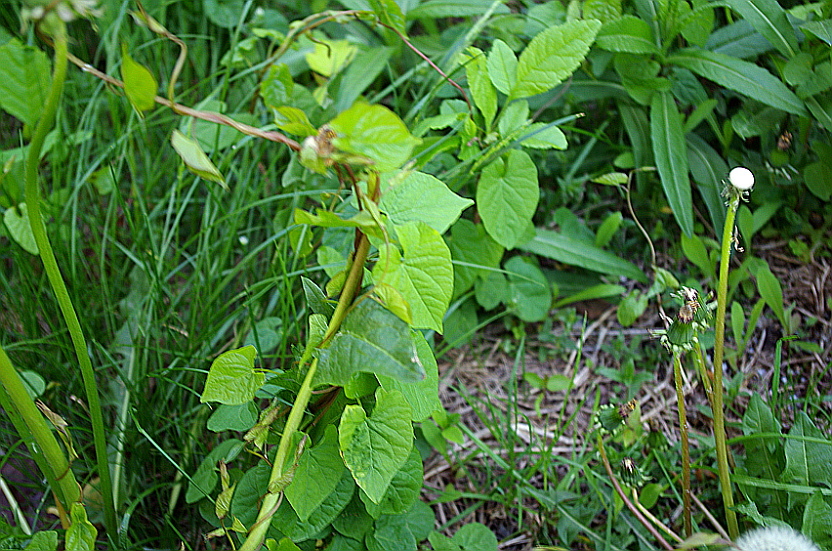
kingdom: Plantae
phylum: Tracheophyta
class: Magnoliopsida
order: Solanales
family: Convolvulaceae
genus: Calystegia
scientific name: Calystegia
